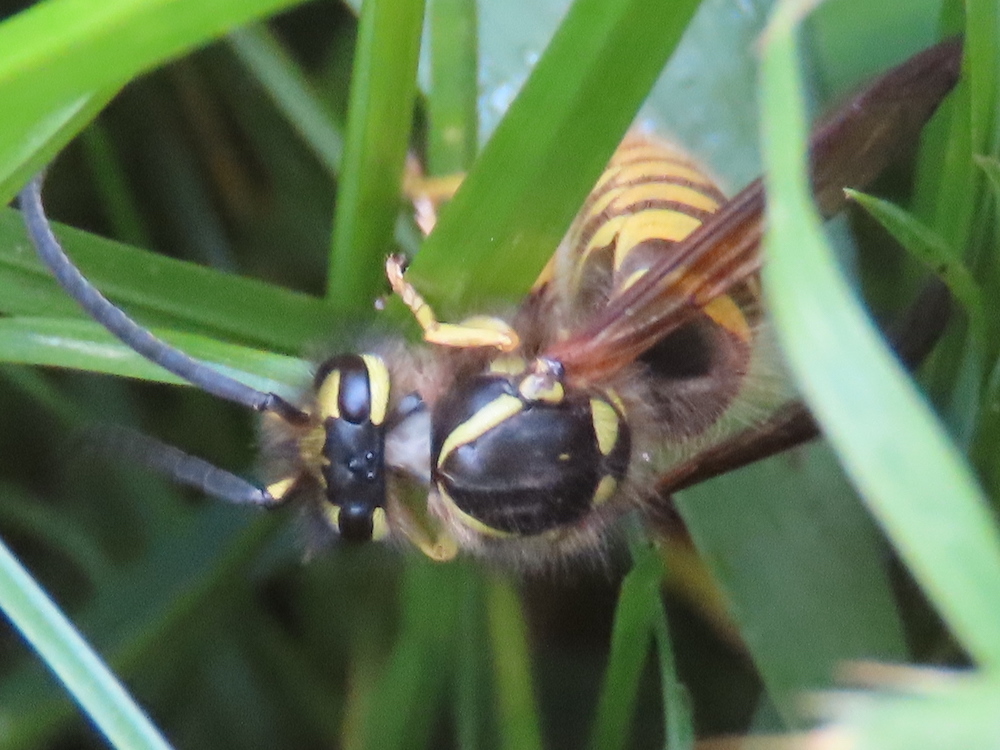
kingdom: Animalia
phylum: Arthropoda
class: Insecta
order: Hymenoptera
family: Vespidae
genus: Vespula
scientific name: Vespula flavopilosa
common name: Downy yellowjacket
